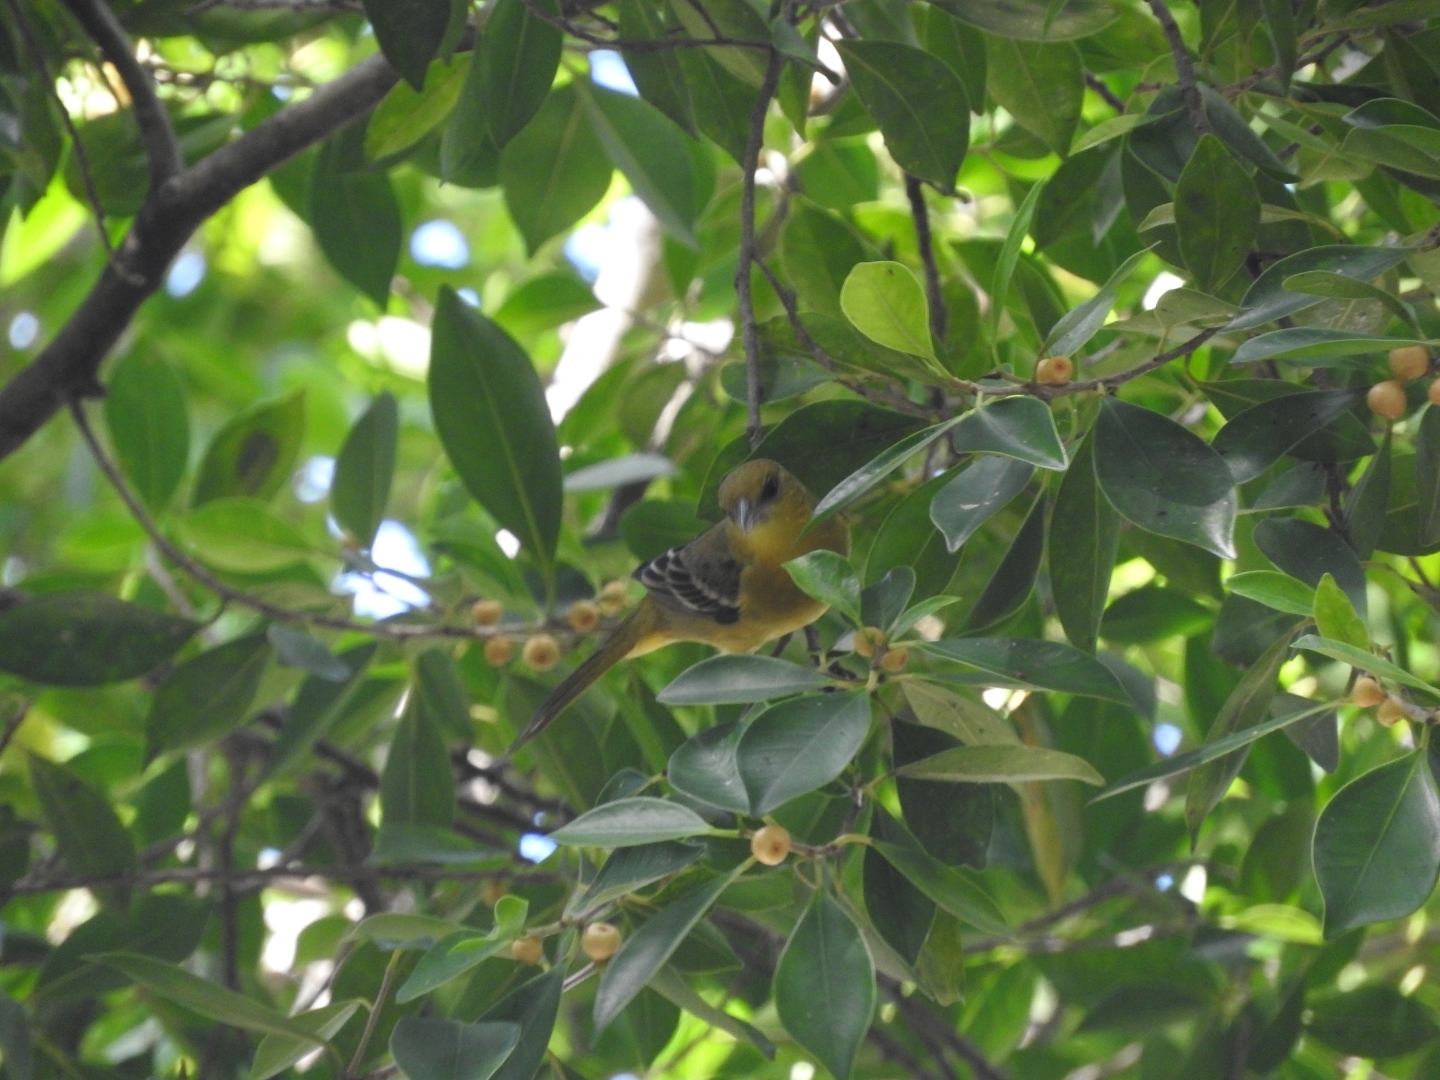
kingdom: Animalia
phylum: Chordata
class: Aves
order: Passeriformes
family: Icteridae
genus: Icterus
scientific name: Icterus galbula
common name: Baltimore oriole
